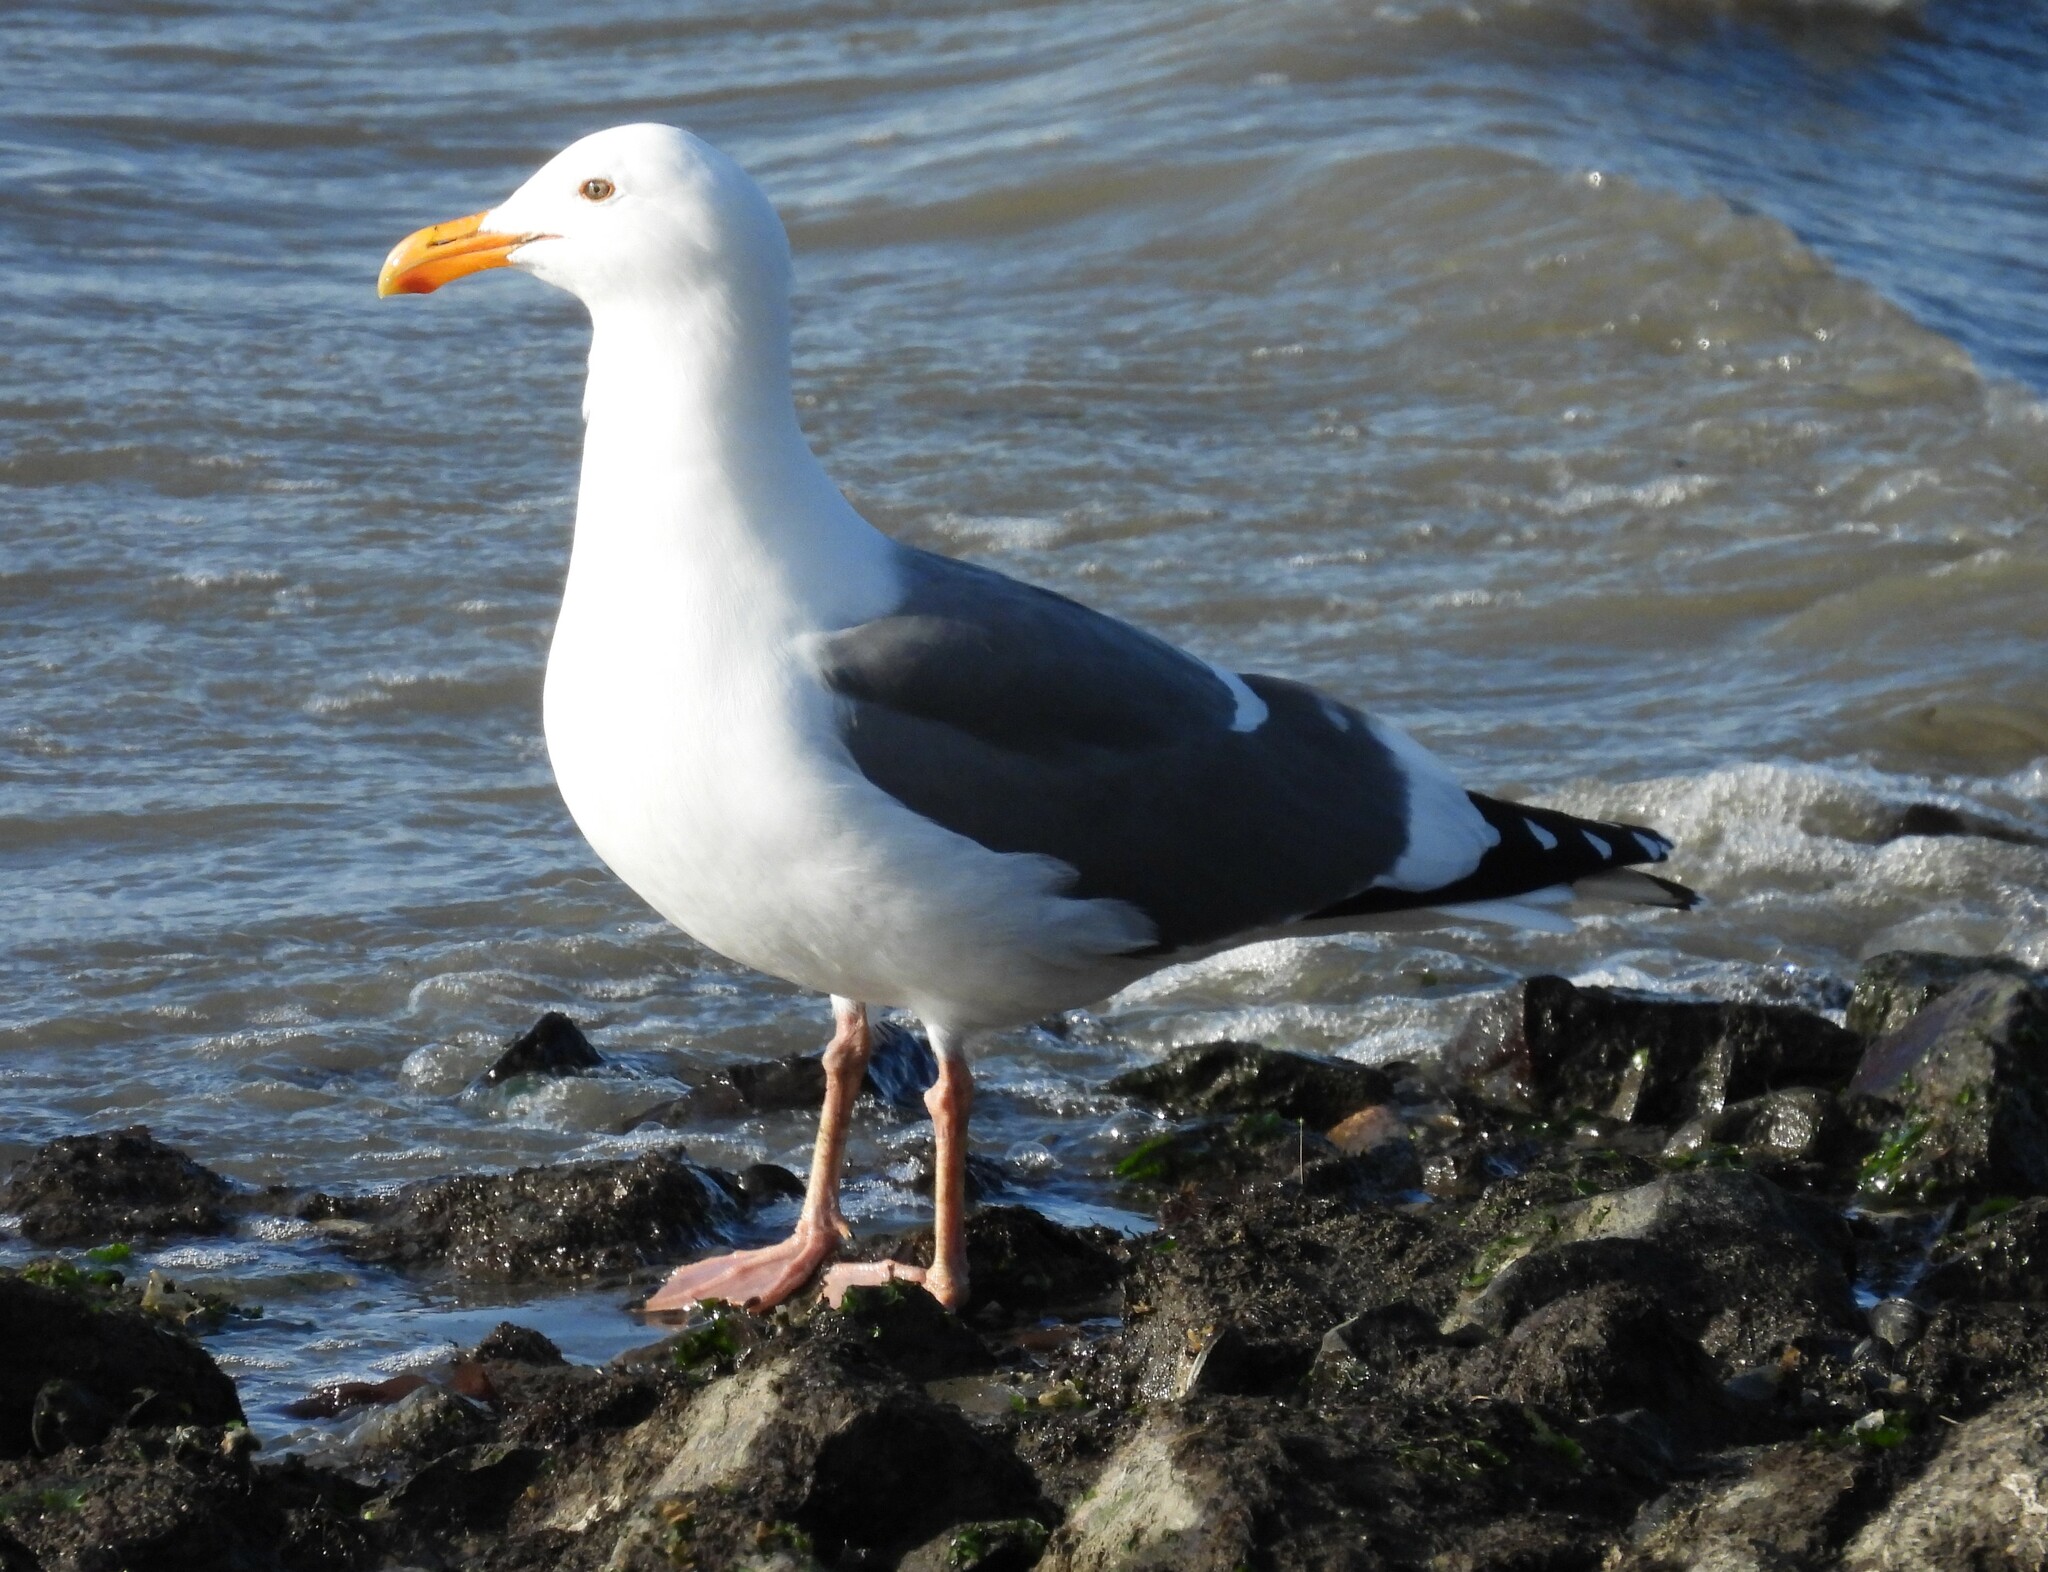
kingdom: Animalia
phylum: Chordata
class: Aves
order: Charadriiformes
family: Laridae
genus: Larus
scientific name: Larus occidentalis
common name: Western gull
